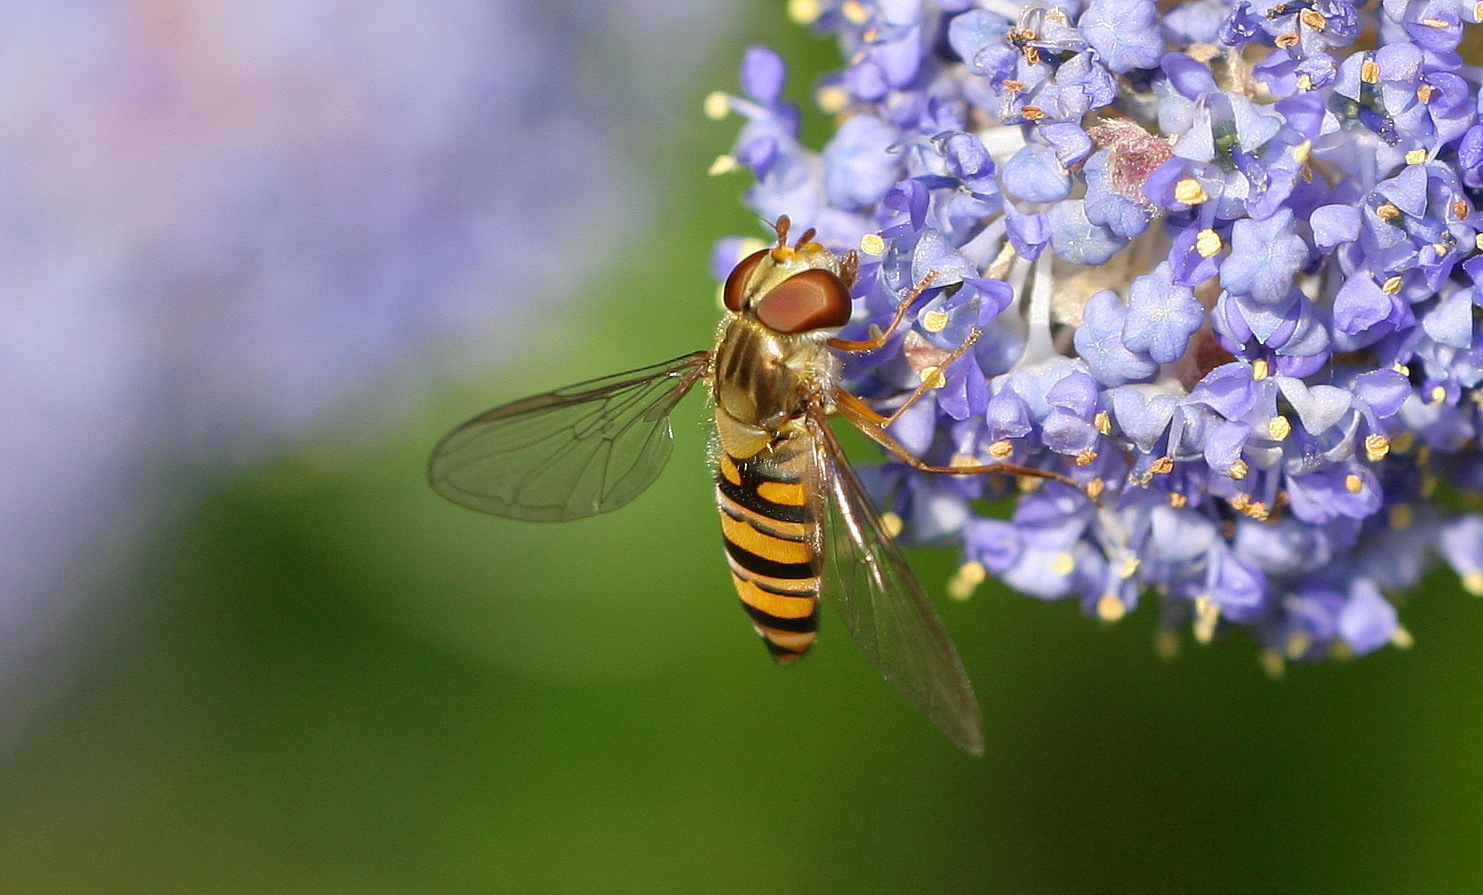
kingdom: Animalia
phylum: Arthropoda
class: Insecta
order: Diptera
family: Syrphidae
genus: Episyrphus
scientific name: Episyrphus balteatus
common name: Marmalade hoverfly
